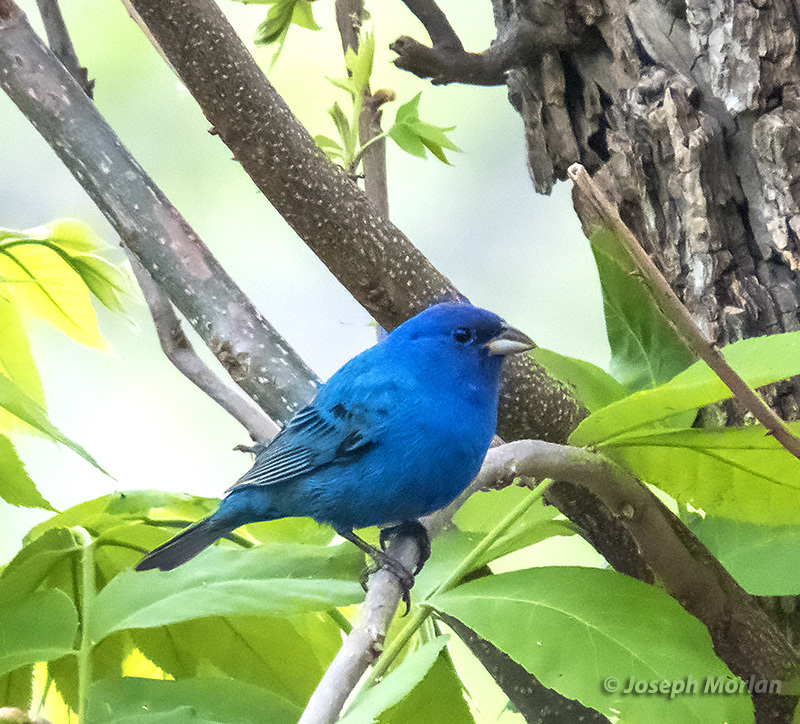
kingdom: Animalia
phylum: Chordata
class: Aves
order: Passeriformes
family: Cardinalidae
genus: Passerina
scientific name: Passerina cyanea
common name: Indigo bunting
